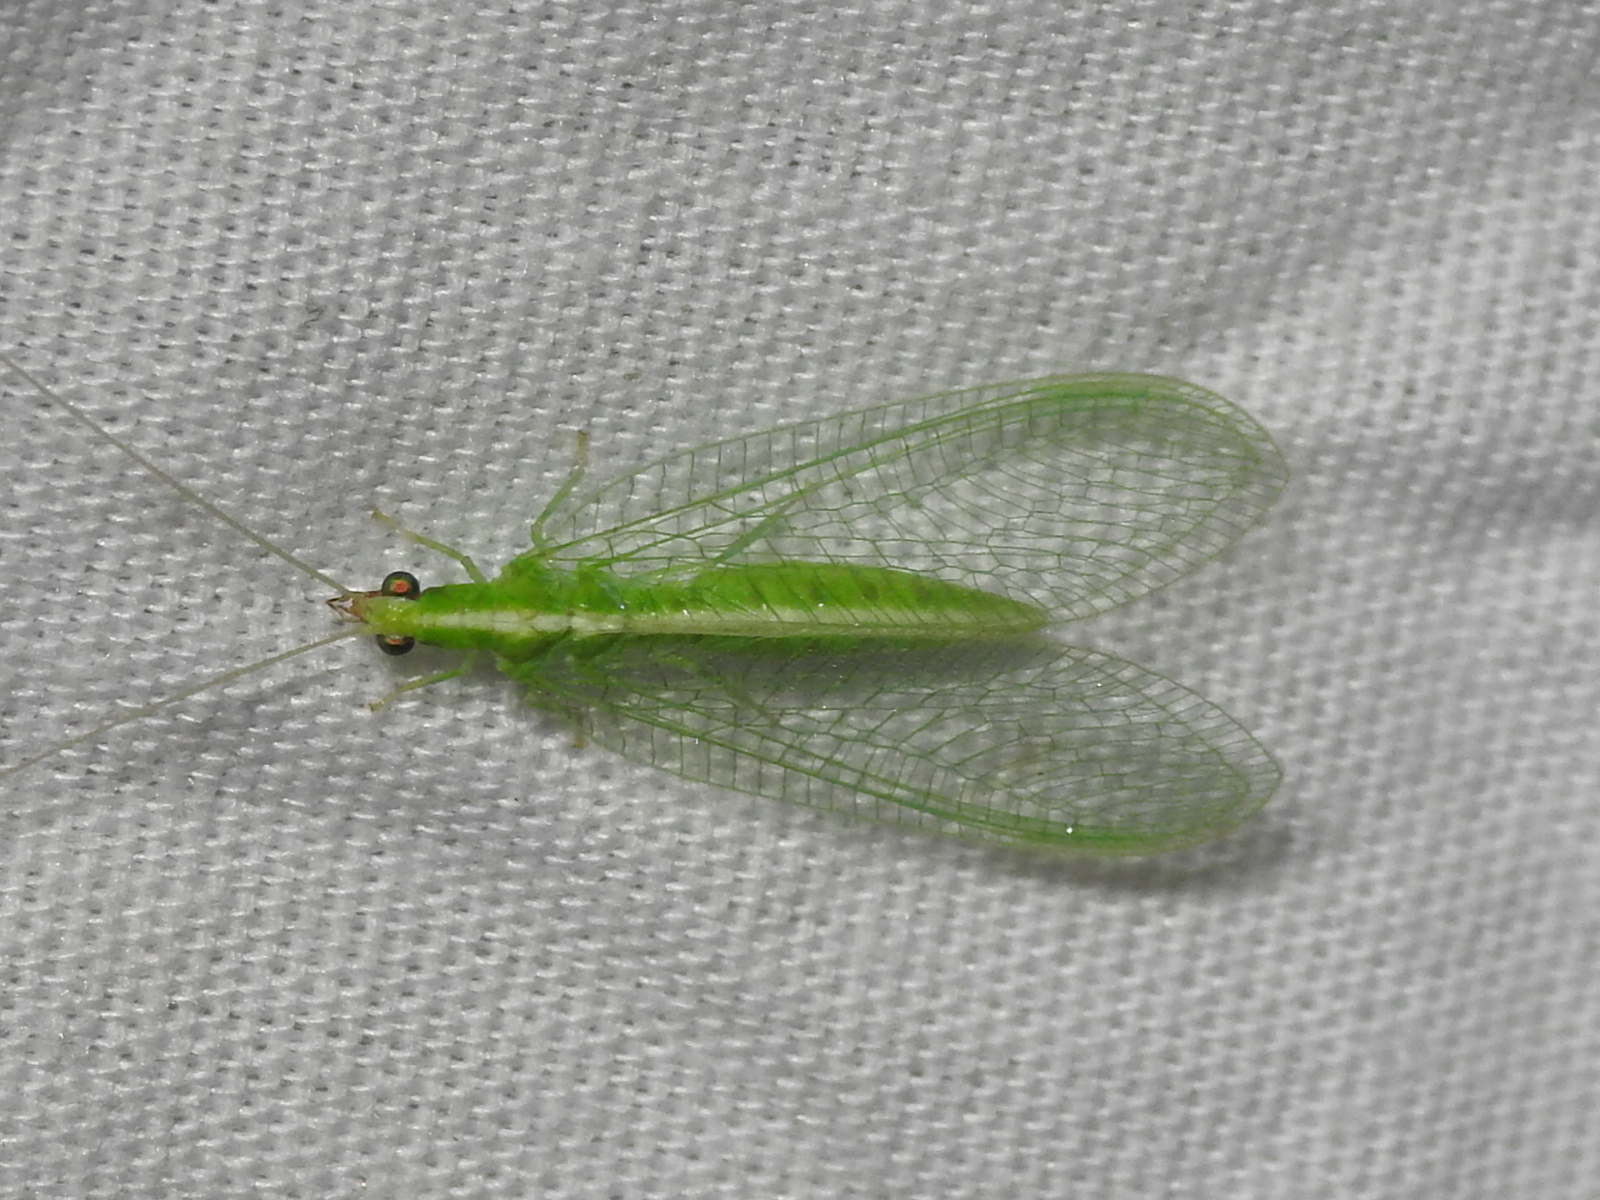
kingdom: Animalia
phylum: Arthropoda
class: Insecta
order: Neuroptera
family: Chrysopidae
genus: Chrysoperla
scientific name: Chrysoperla rufilabris
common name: Red-lipped green lacewing
